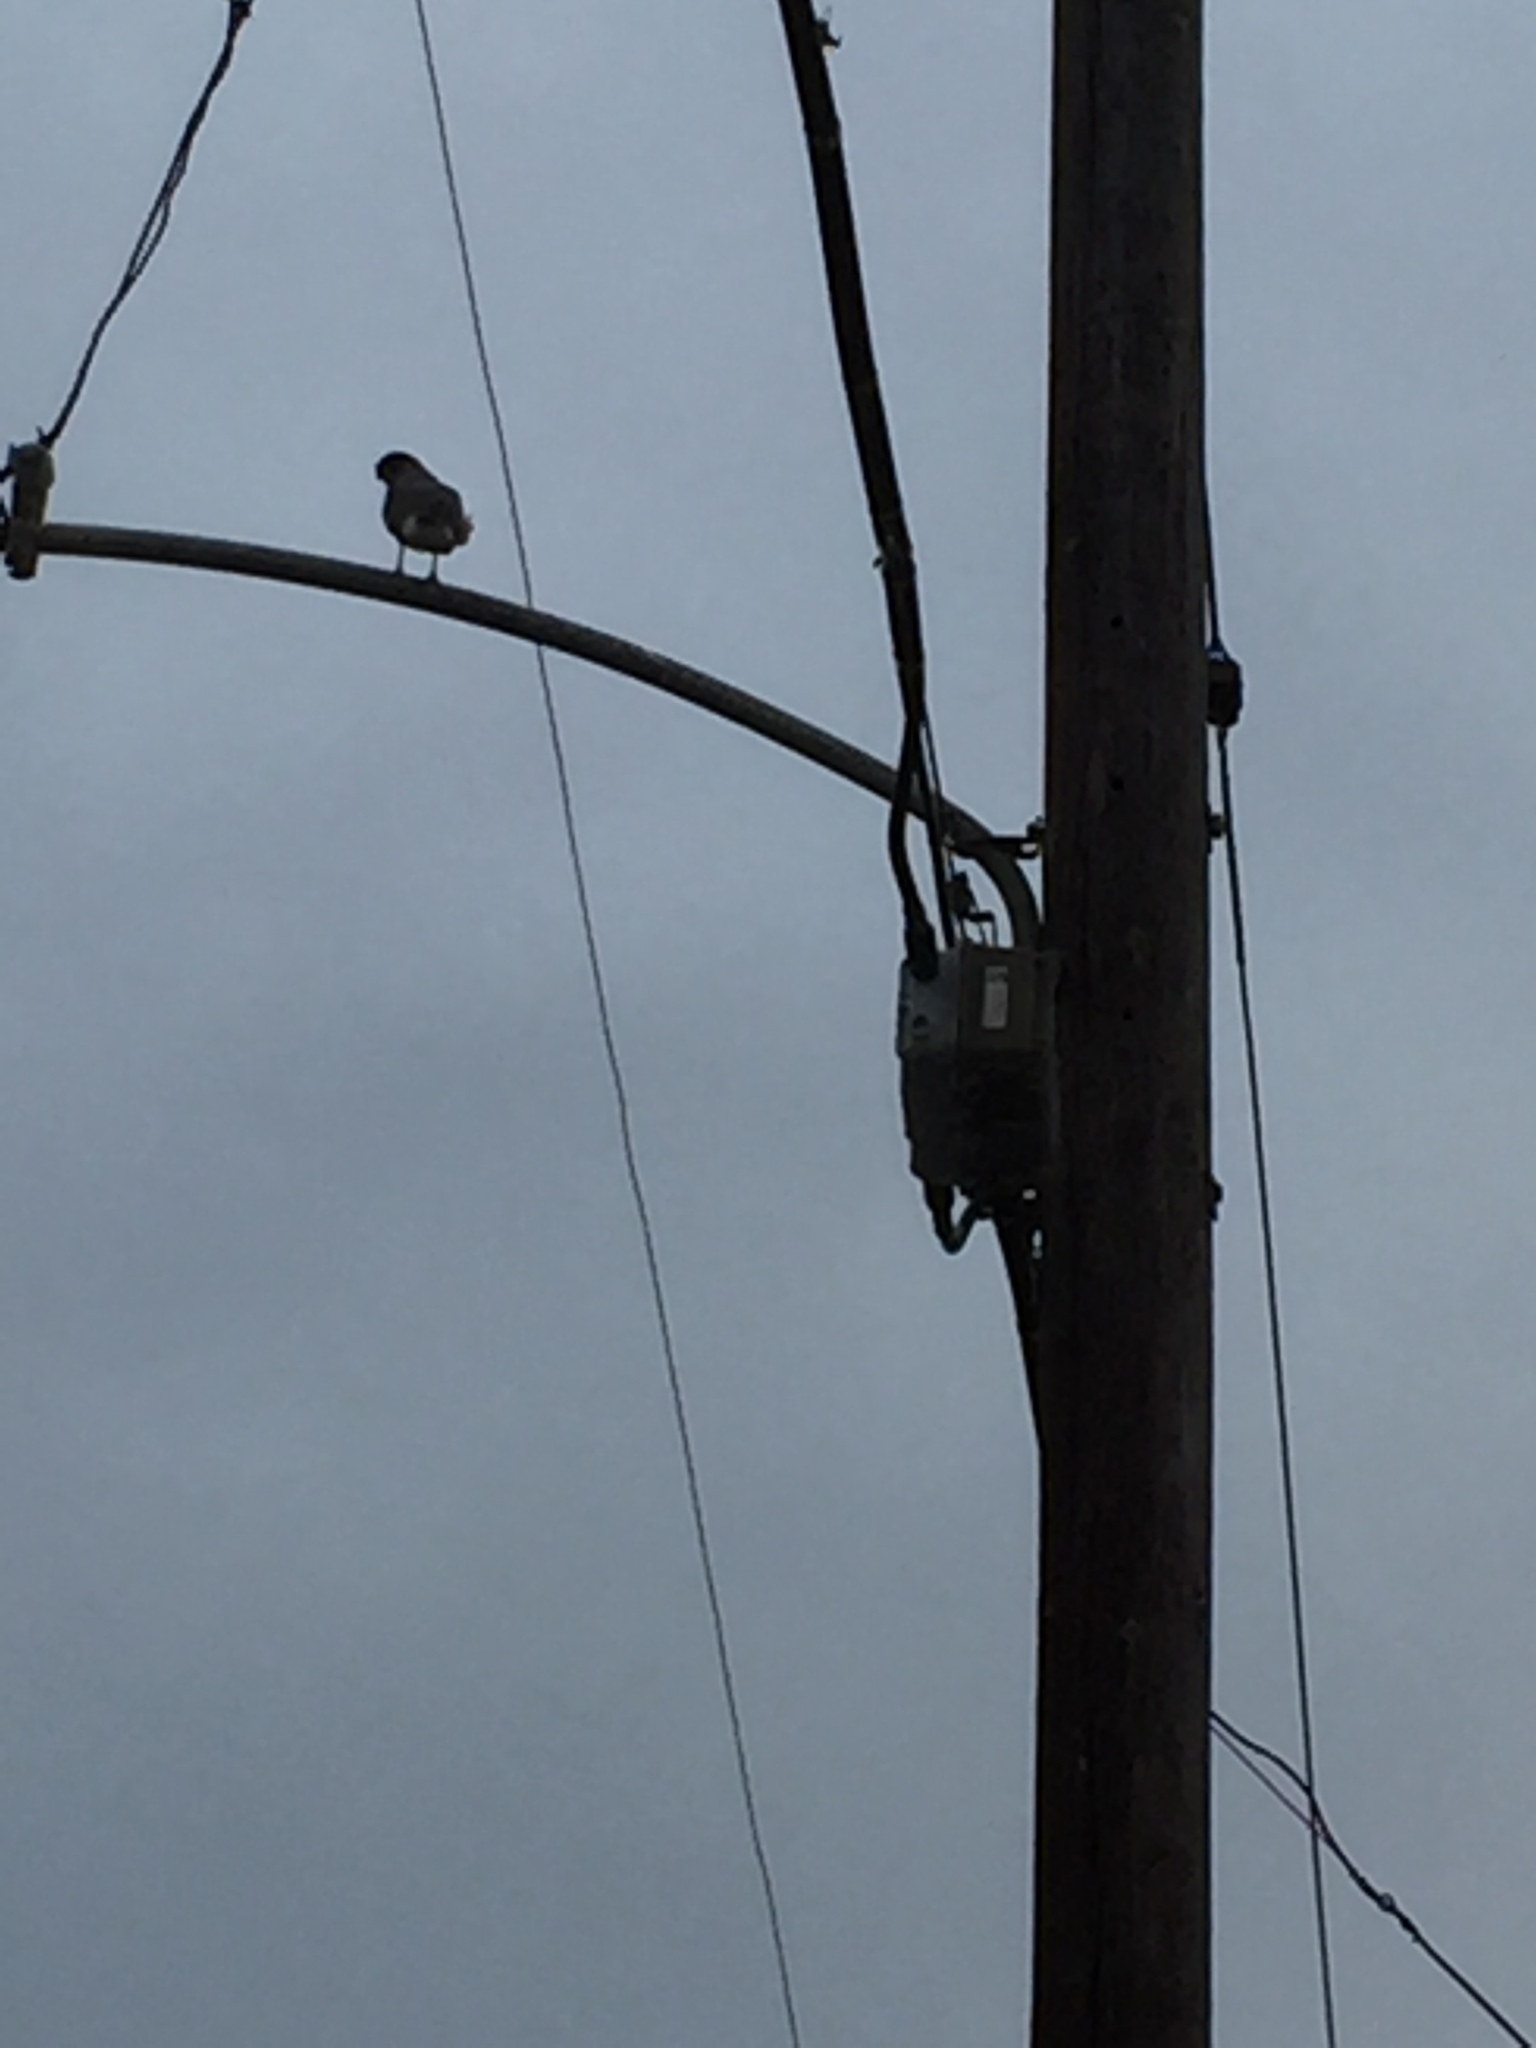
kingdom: Animalia
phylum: Chordata
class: Aves
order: Accipitriformes
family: Accipitridae
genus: Accipiter
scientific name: Accipiter cooperii
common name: Cooper's hawk
